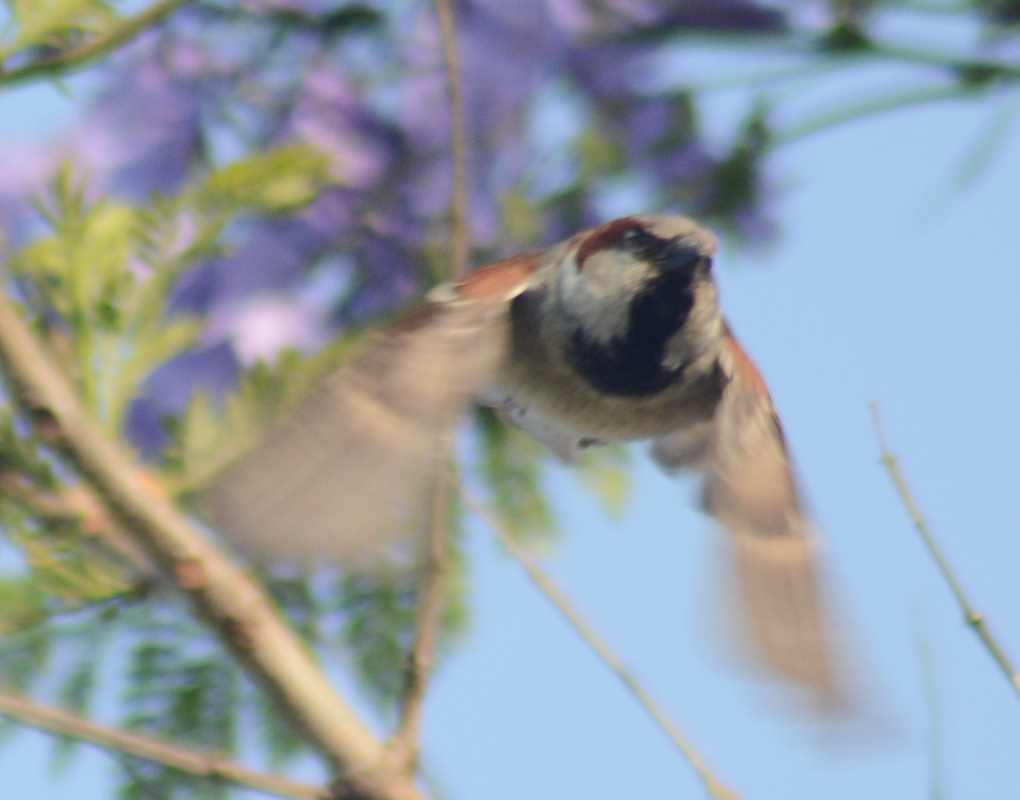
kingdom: Animalia
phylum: Chordata
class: Aves
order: Passeriformes
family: Passeridae
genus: Passer
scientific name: Passer domesticus
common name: House sparrow
